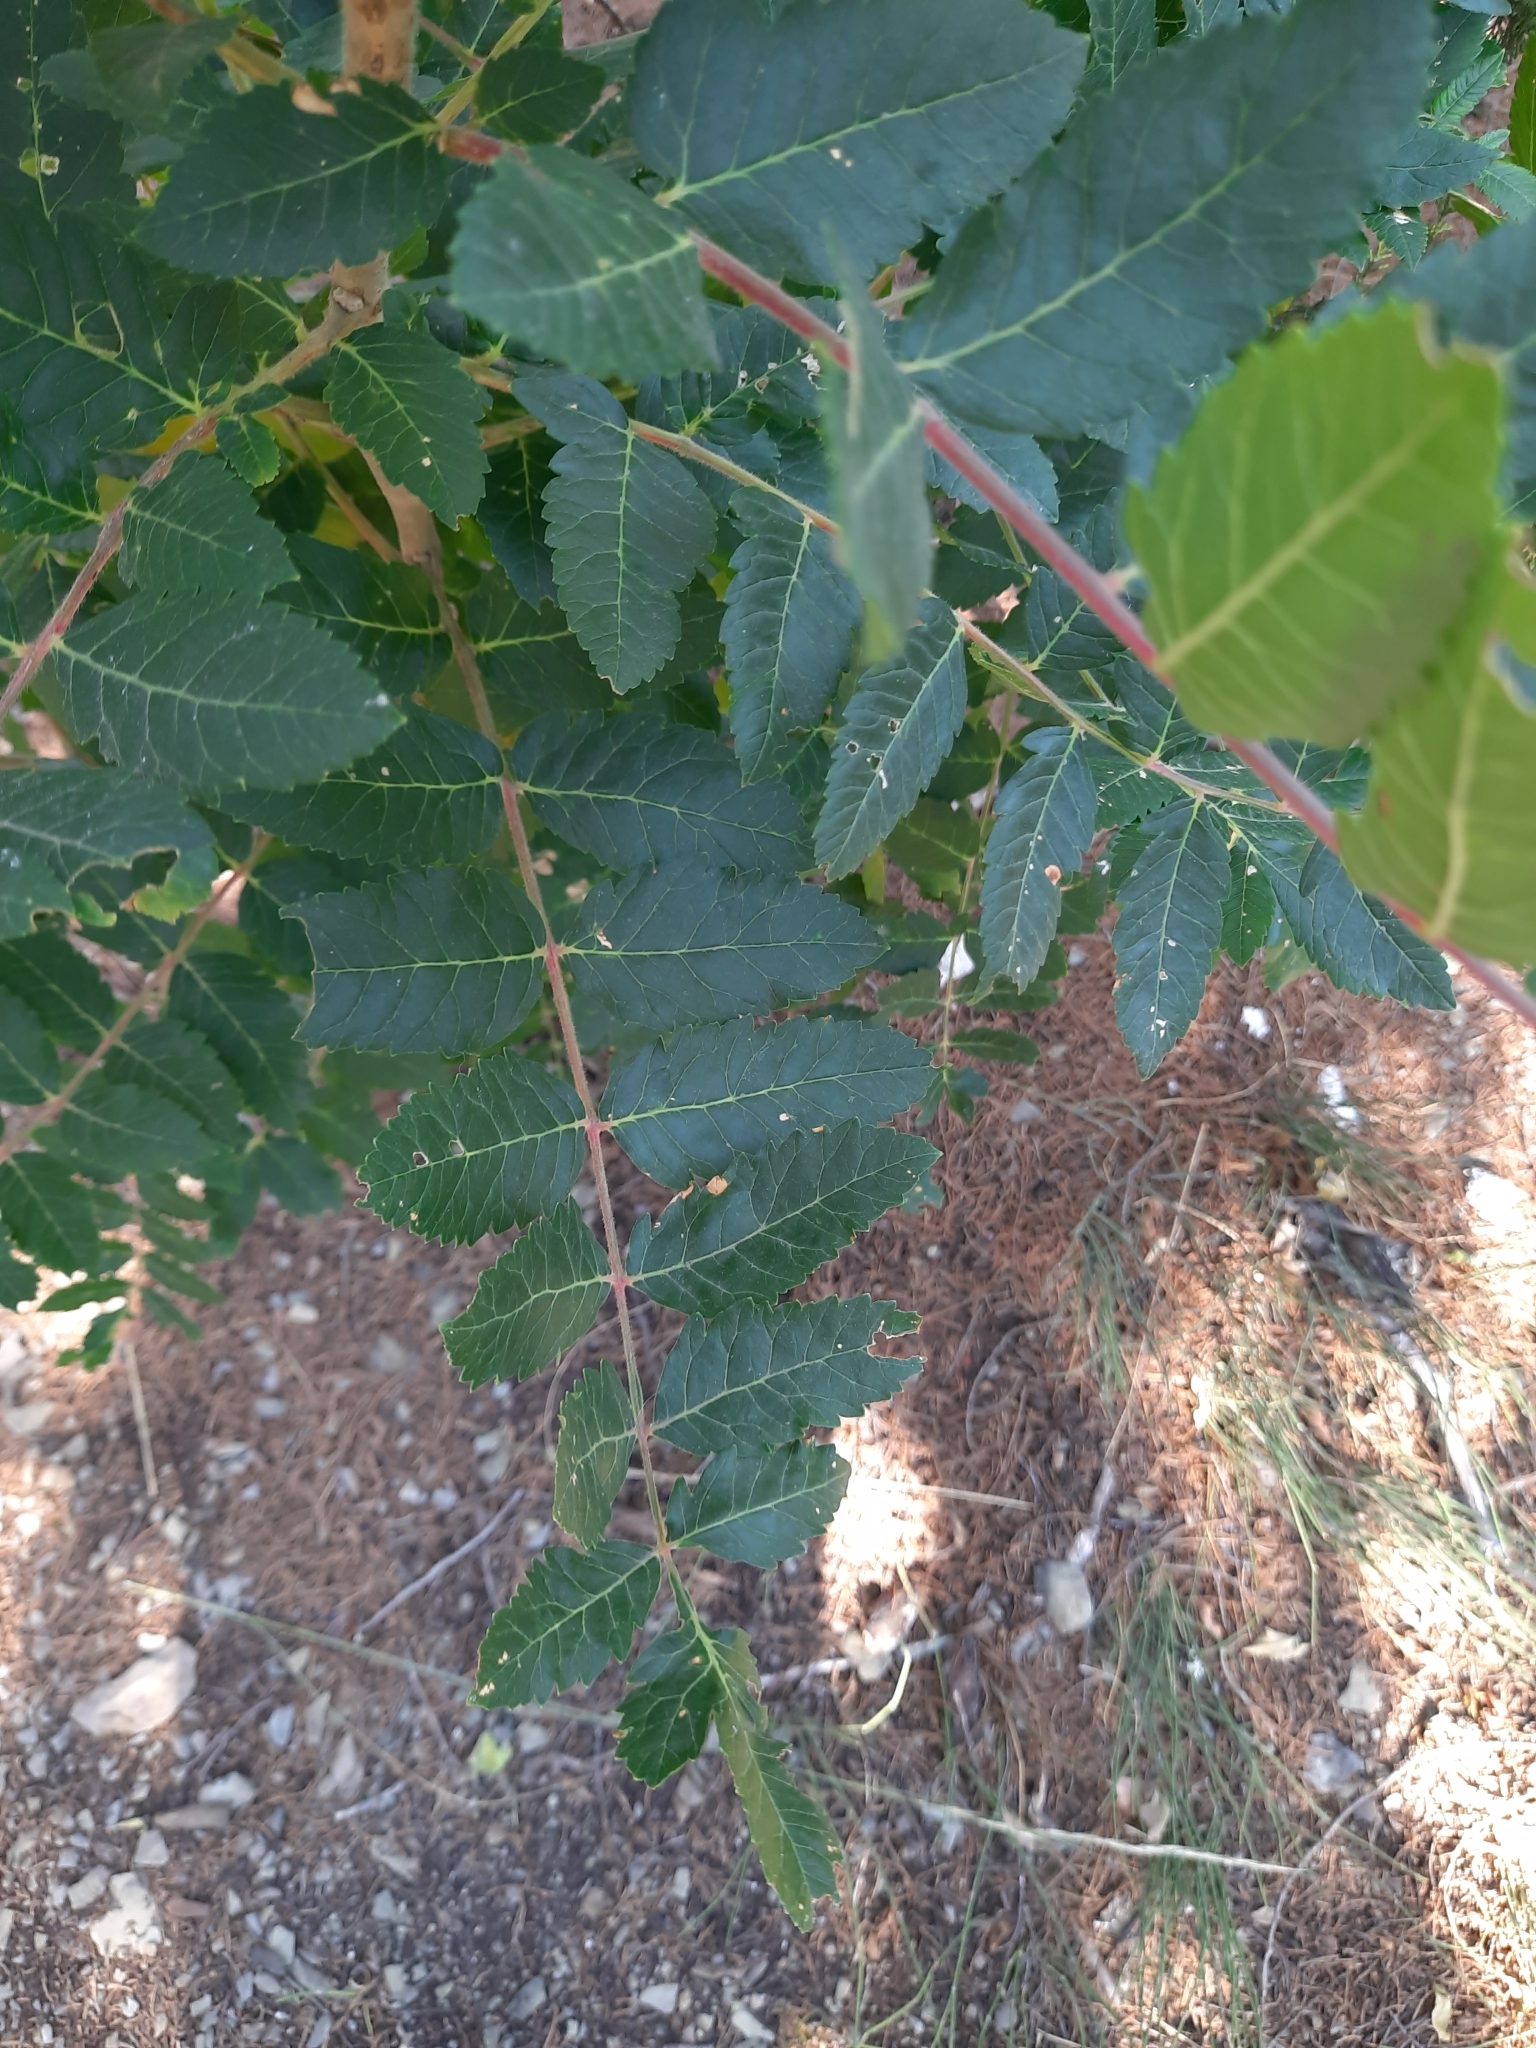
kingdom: Plantae
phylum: Tracheophyta
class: Magnoliopsida
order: Sapindales
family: Anacardiaceae
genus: Rhus
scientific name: Rhus coriaria
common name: Tanner's sumach
